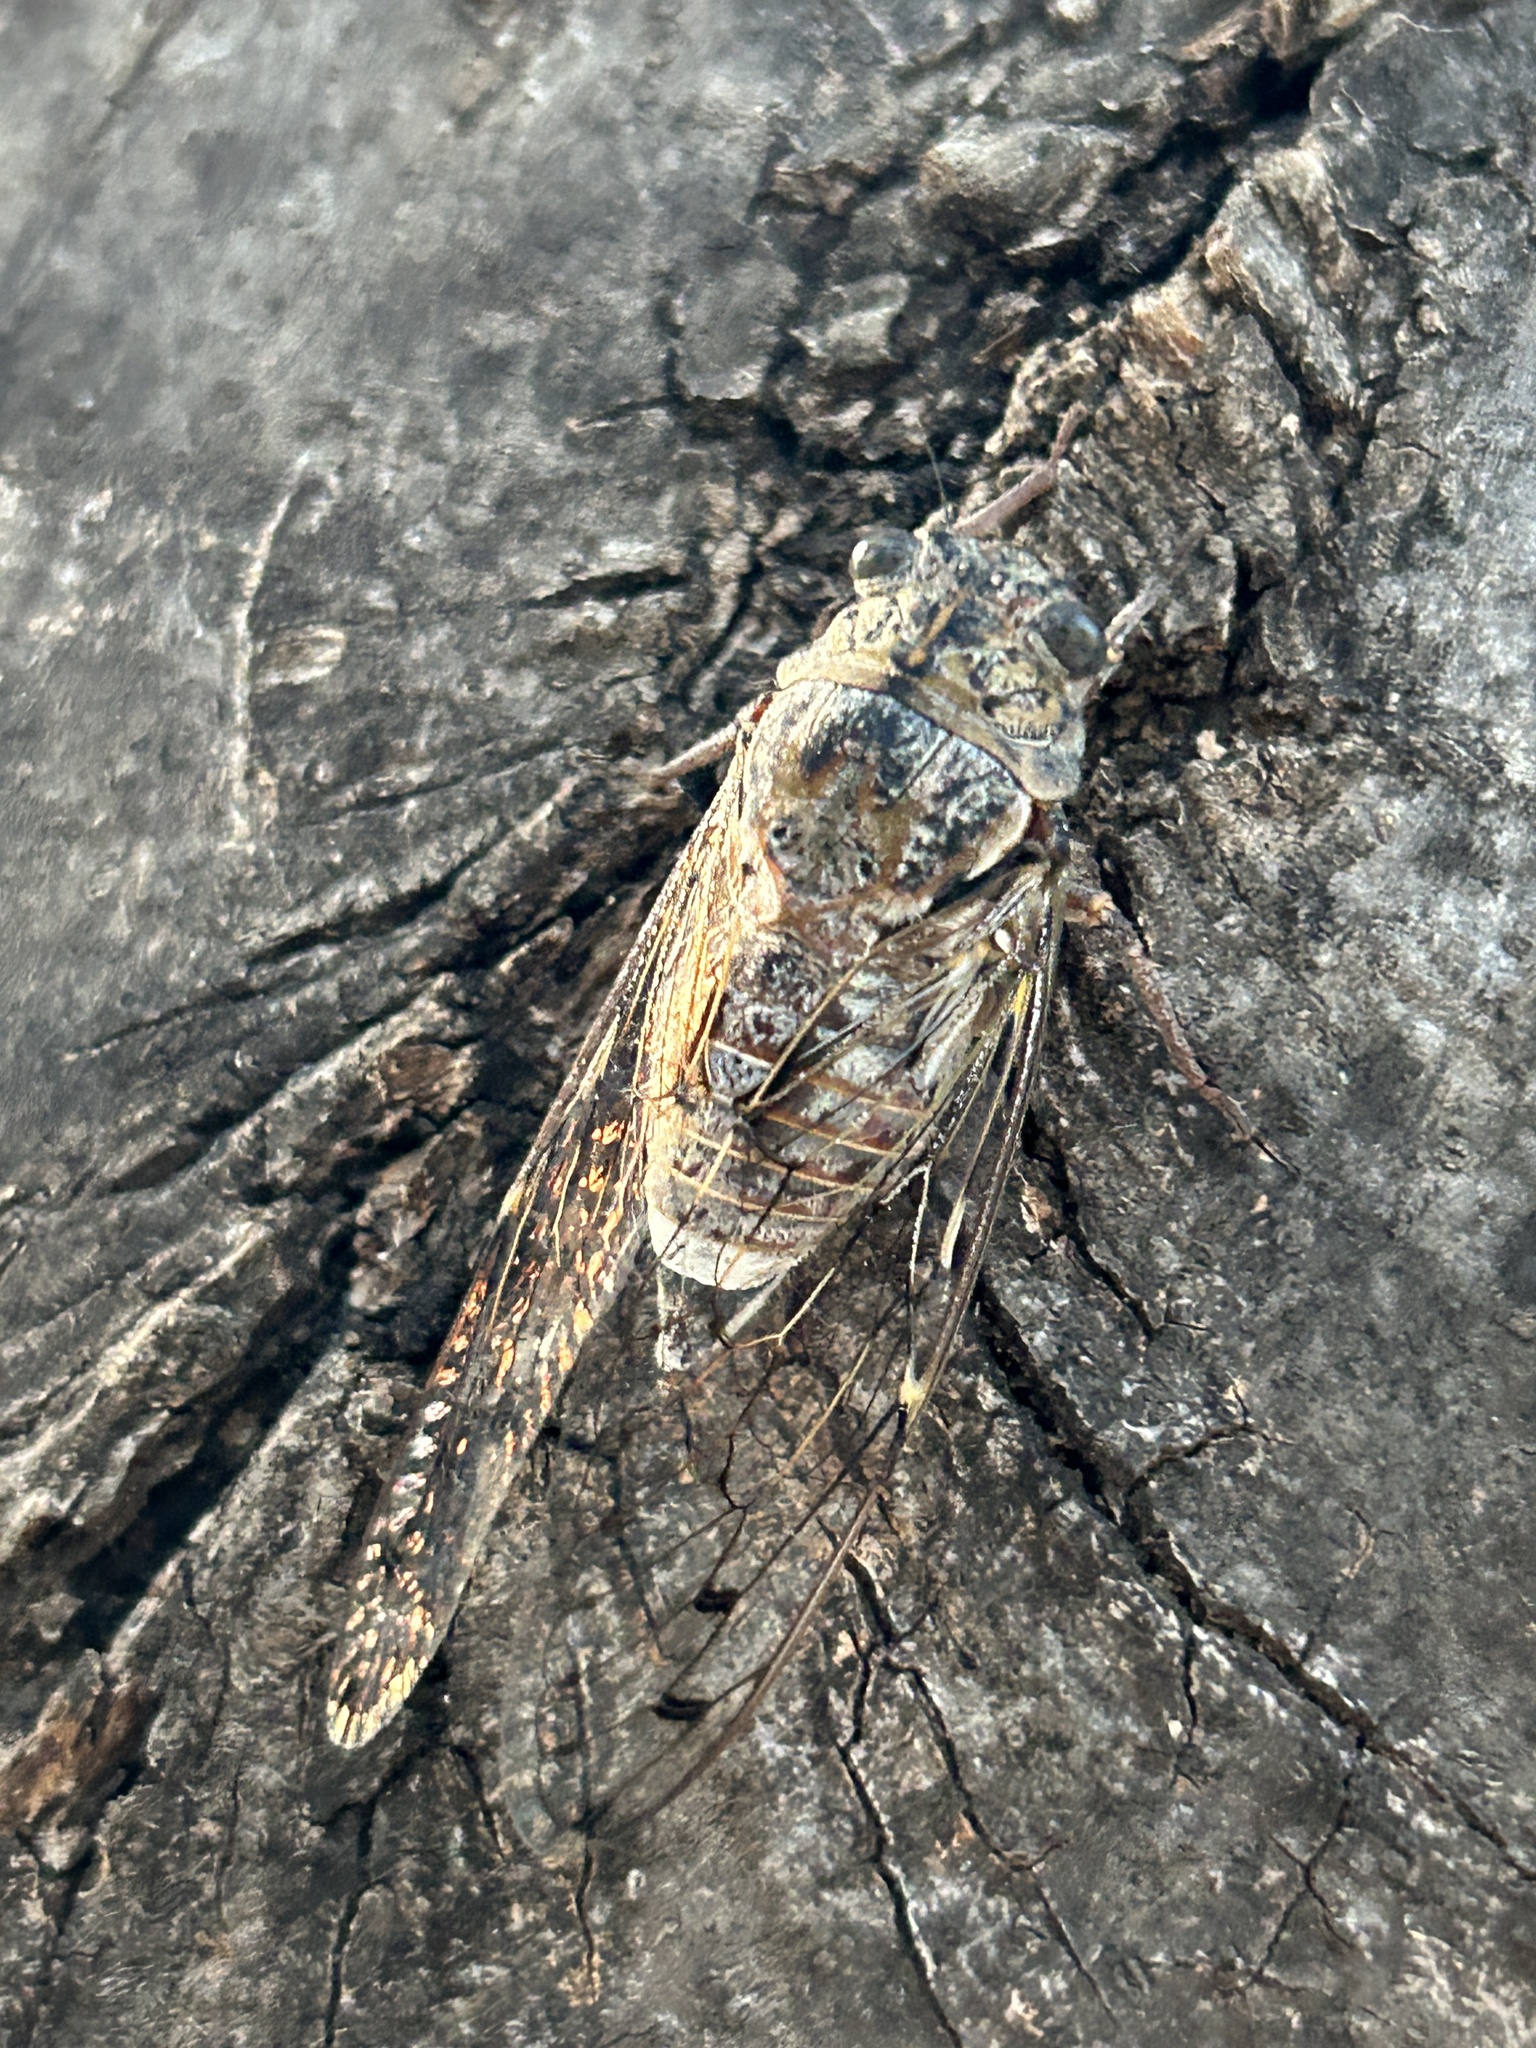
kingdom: Animalia
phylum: Arthropoda
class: Insecta
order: Hemiptera
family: Cicadidae
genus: Cicada
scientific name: Cicada orni
